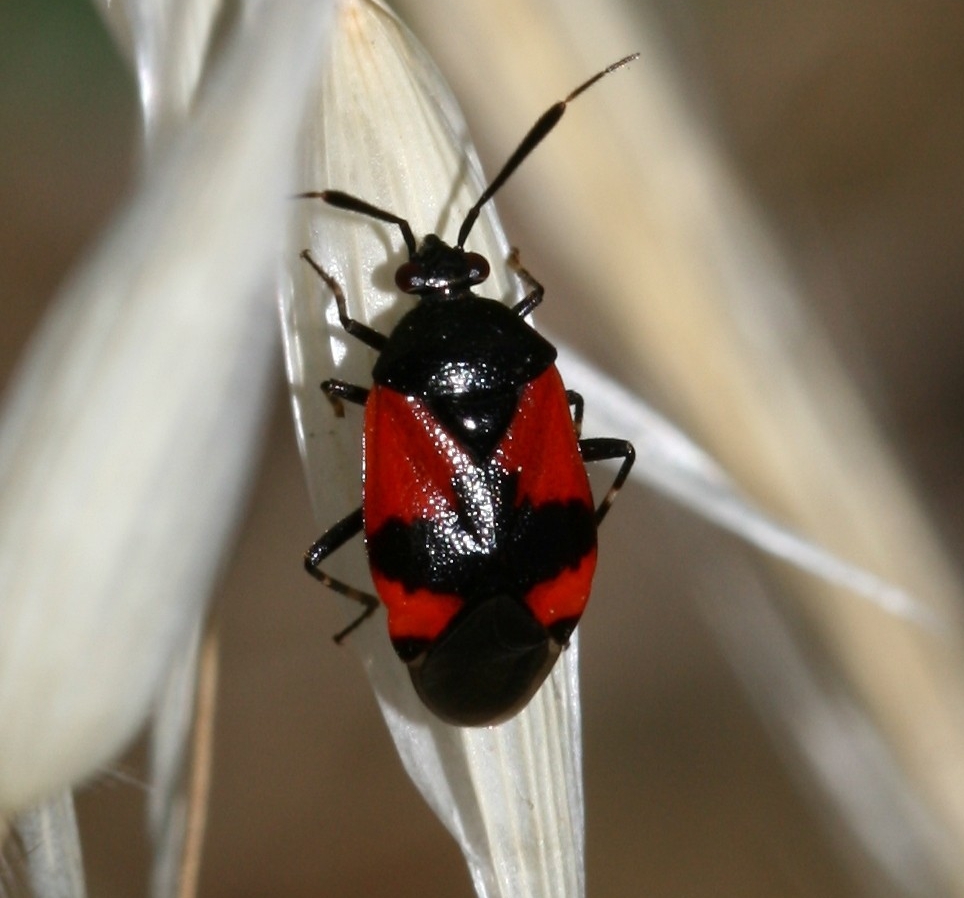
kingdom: Animalia
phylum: Arthropoda
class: Insecta
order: Hemiptera
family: Miridae
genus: Deraeocoris
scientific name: Deraeocoris rutilus
